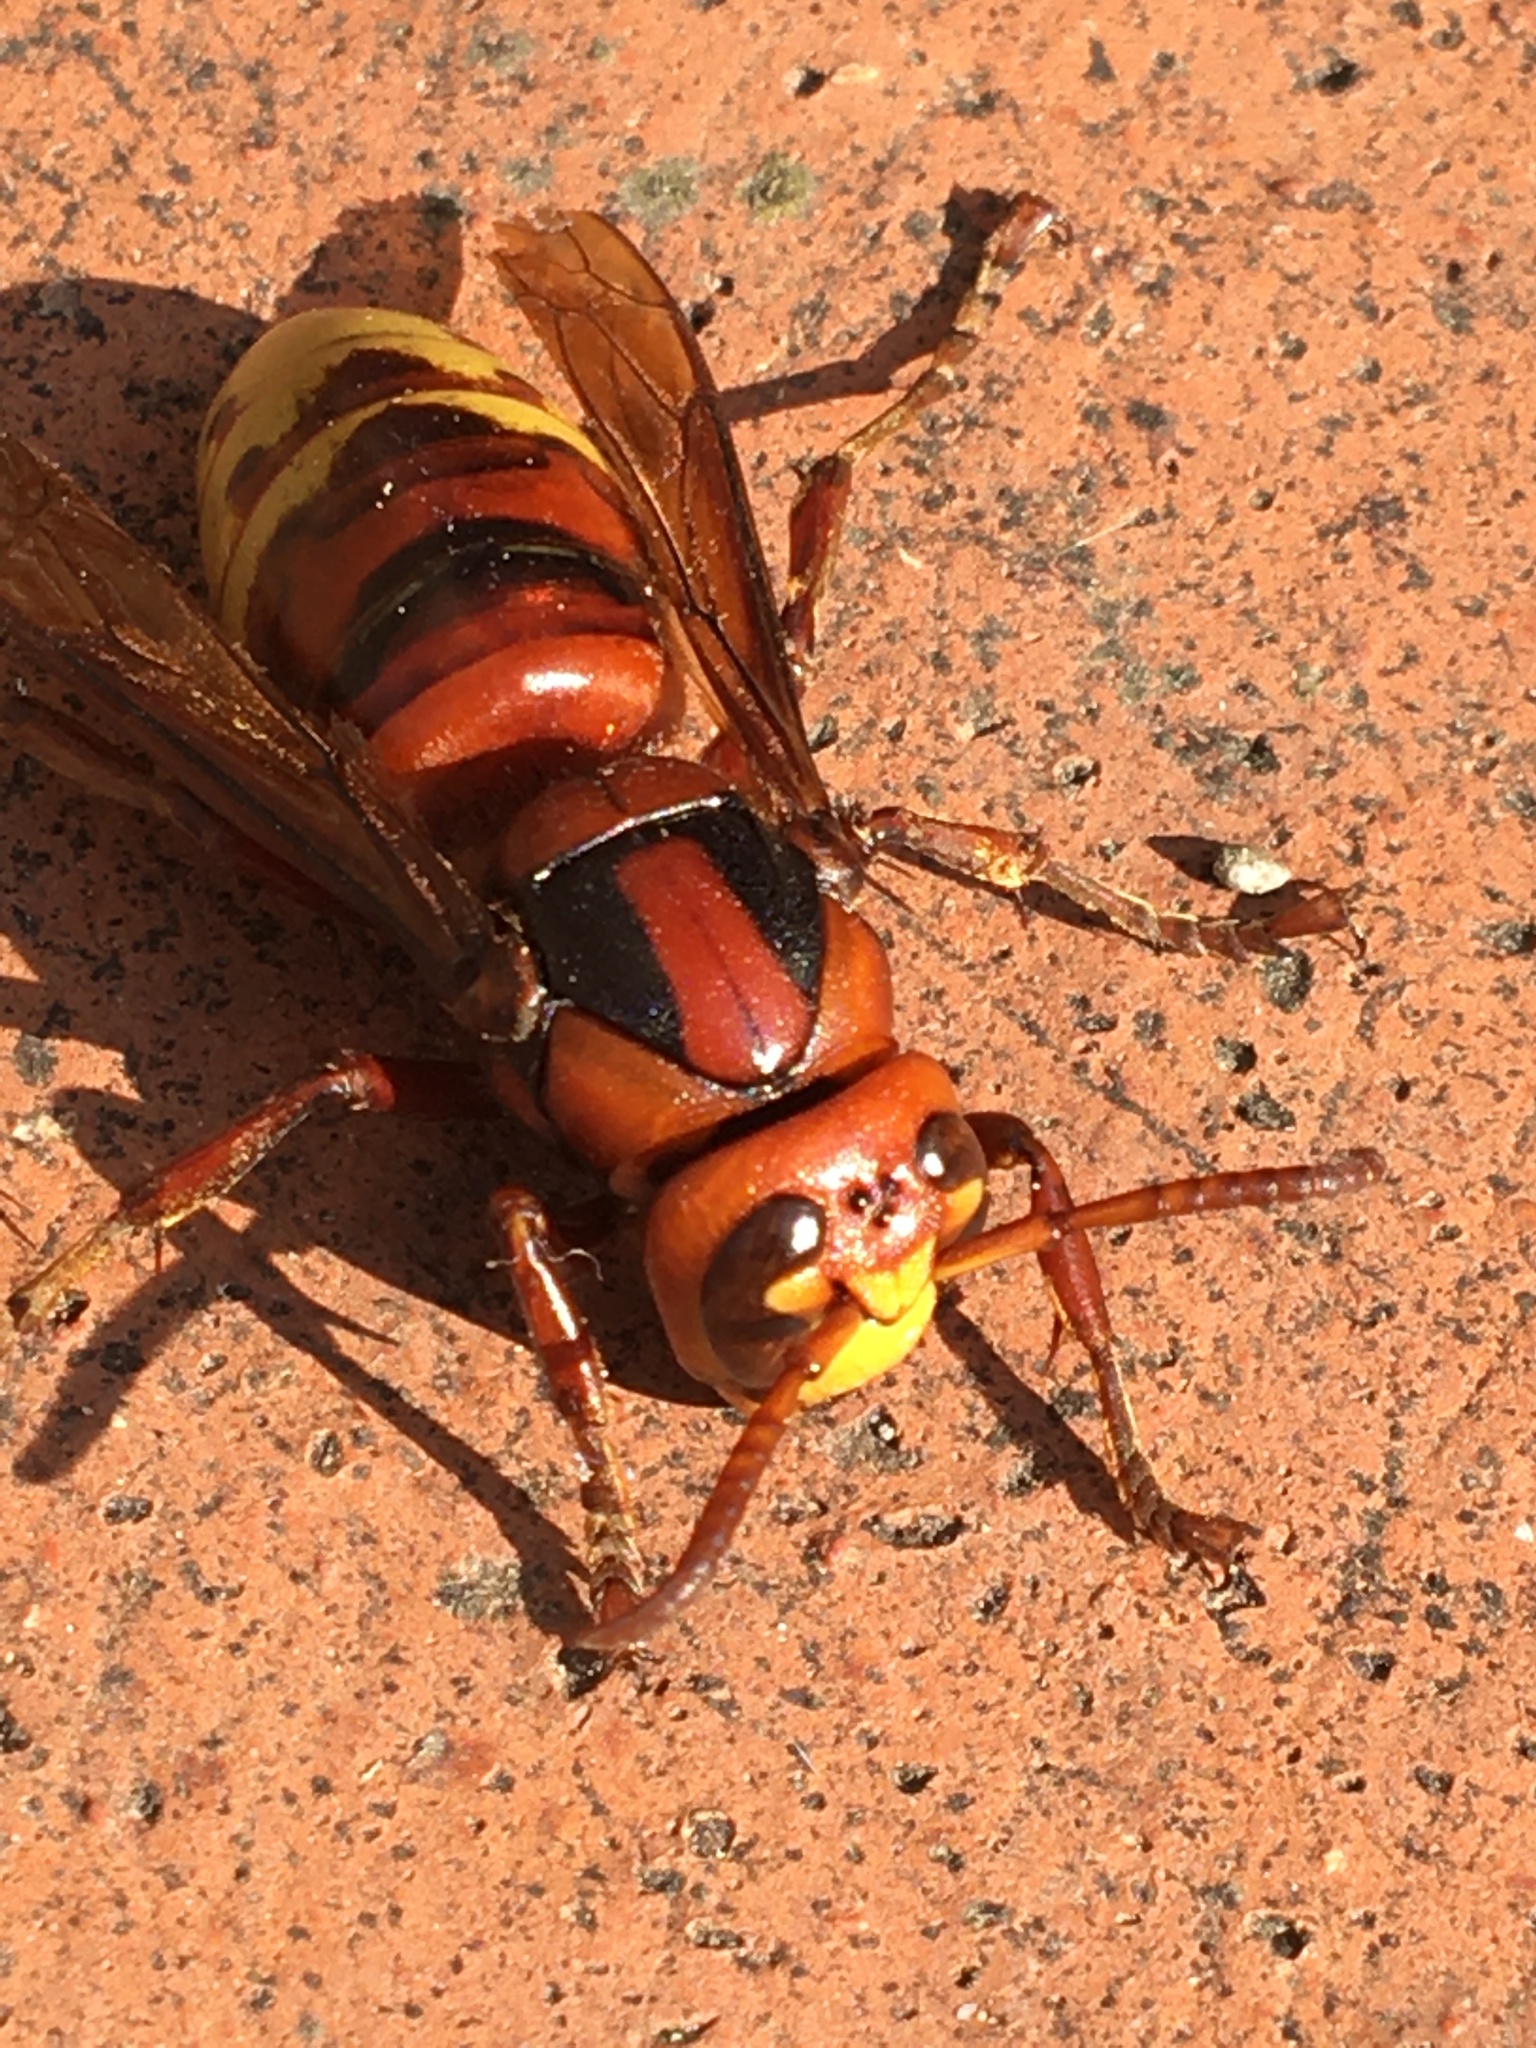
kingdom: Animalia
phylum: Arthropoda
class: Insecta
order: Hymenoptera
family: Vespidae
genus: Vespa
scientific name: Vespa crabro
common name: Hornet
